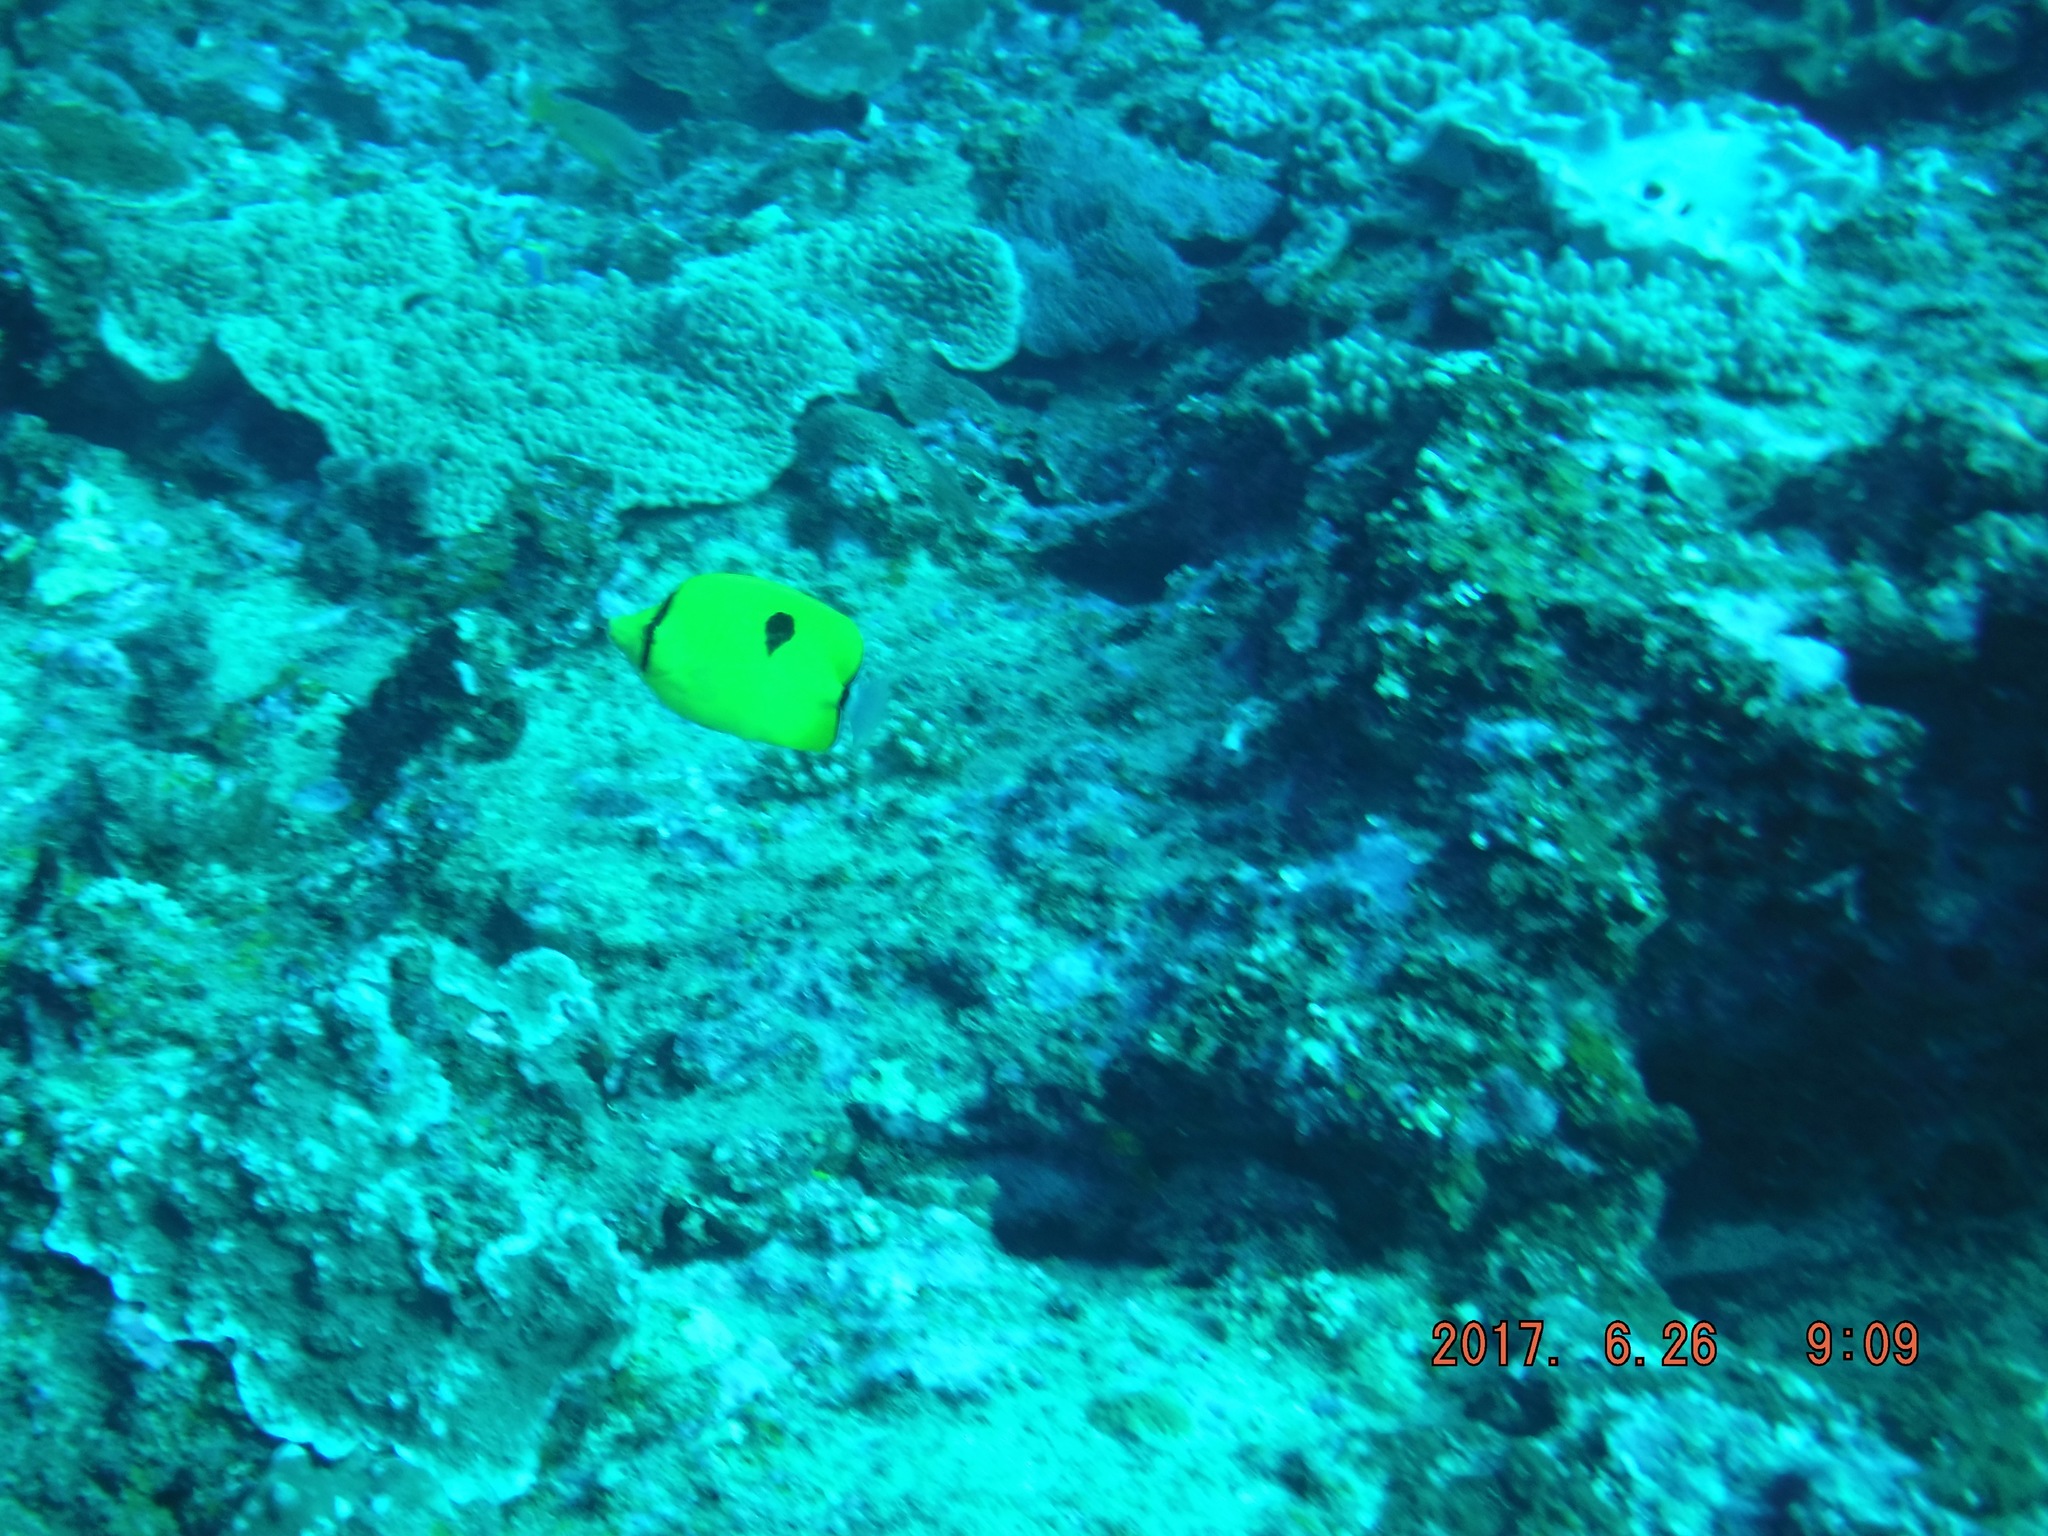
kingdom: Animalia
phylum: Chordata
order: Perciformes
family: Chaetodontidae
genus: Chaetodon
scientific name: Chaetodon interruptus
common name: Yellow teardrop butterflyfish
